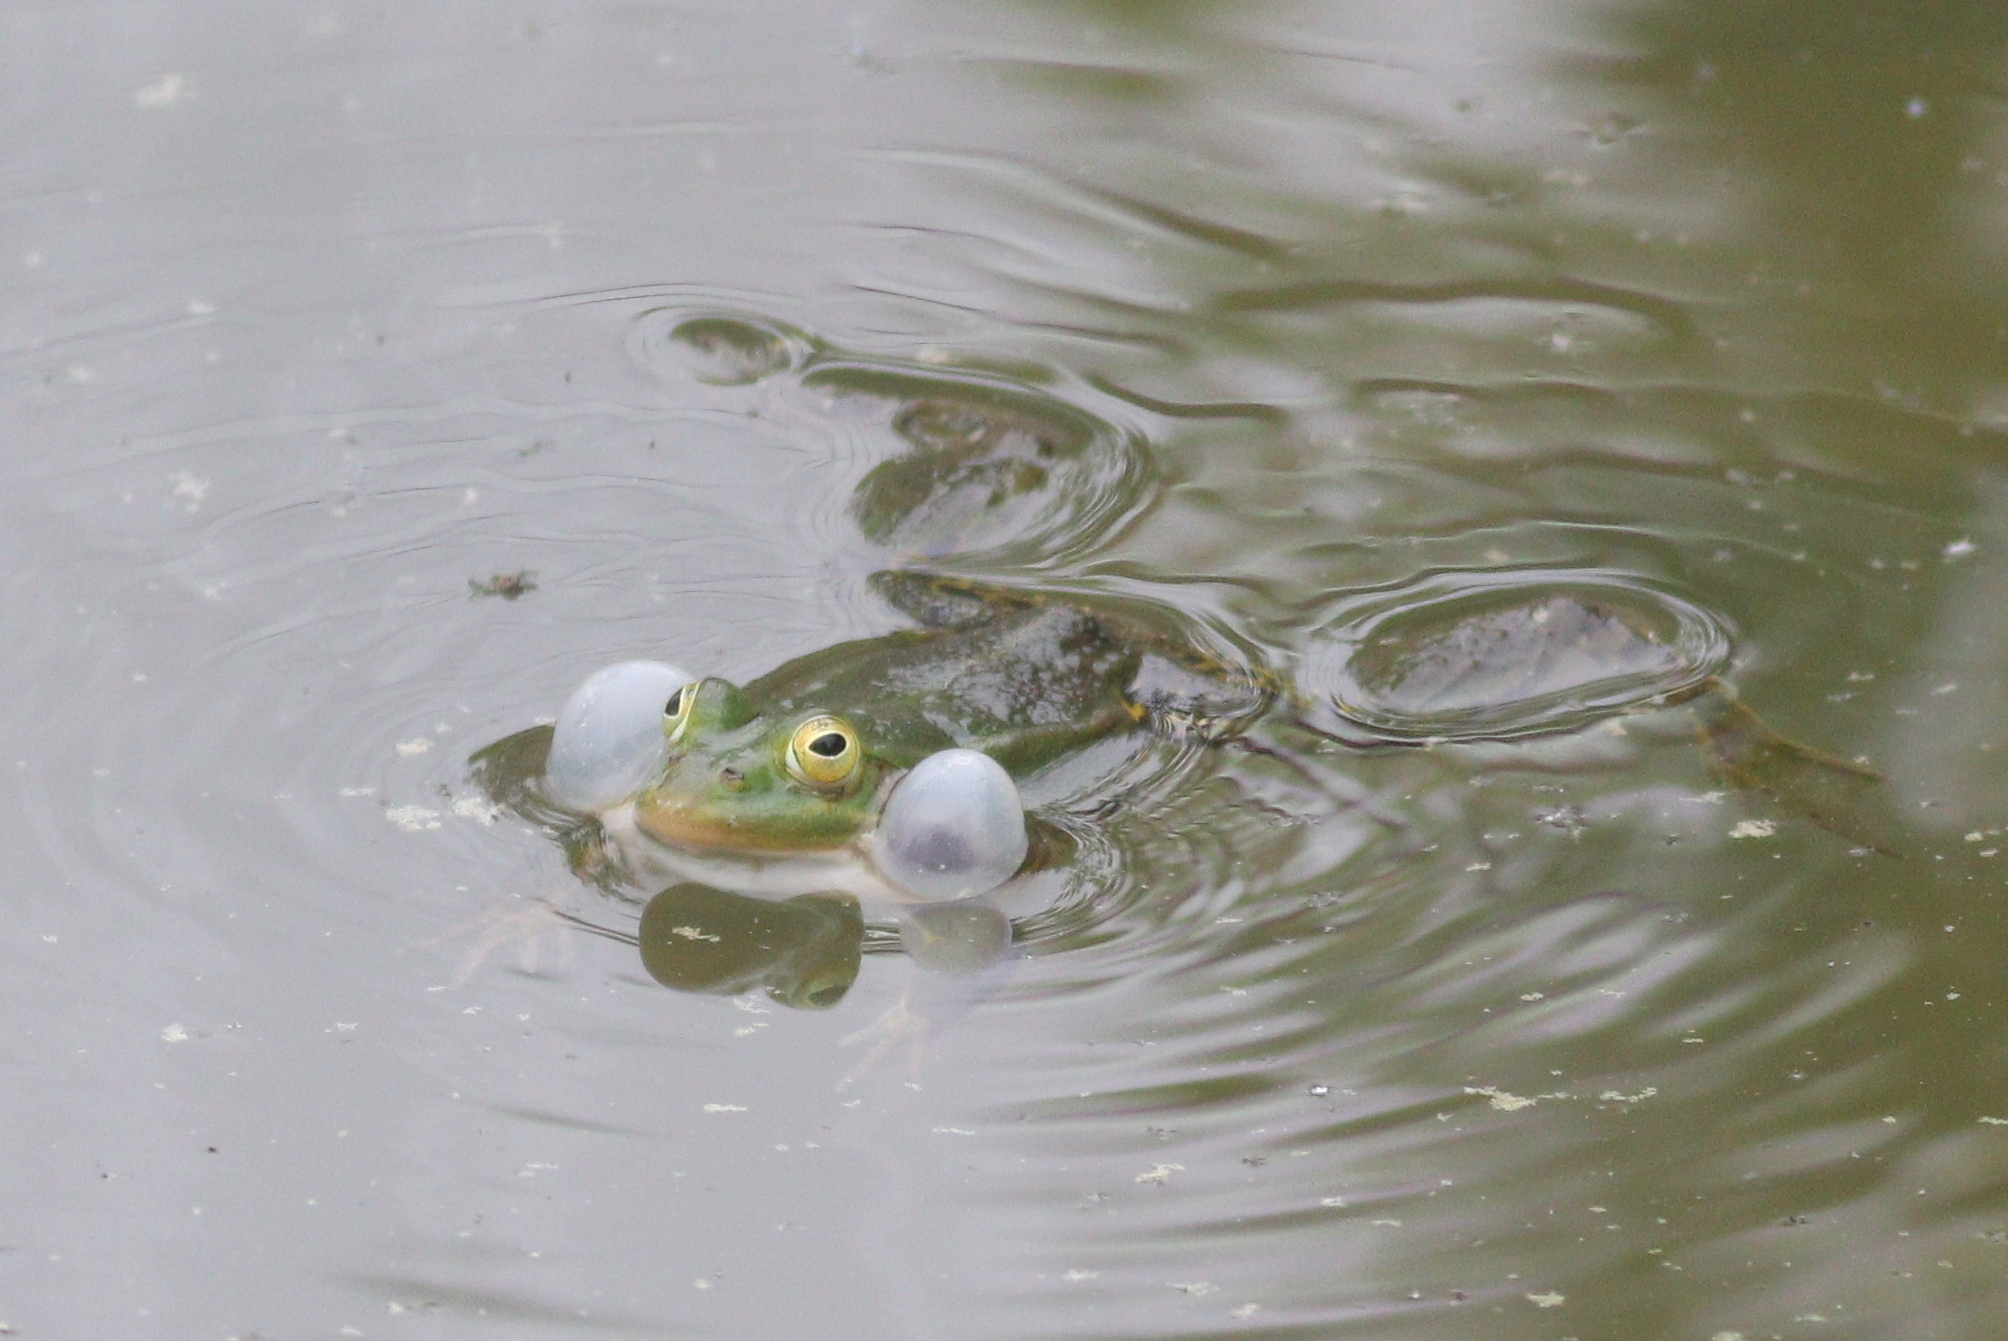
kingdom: Animalia
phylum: Chordata
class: Amphibia
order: Anura
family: Ranidae
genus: Pelophylax
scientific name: Pelophylax
